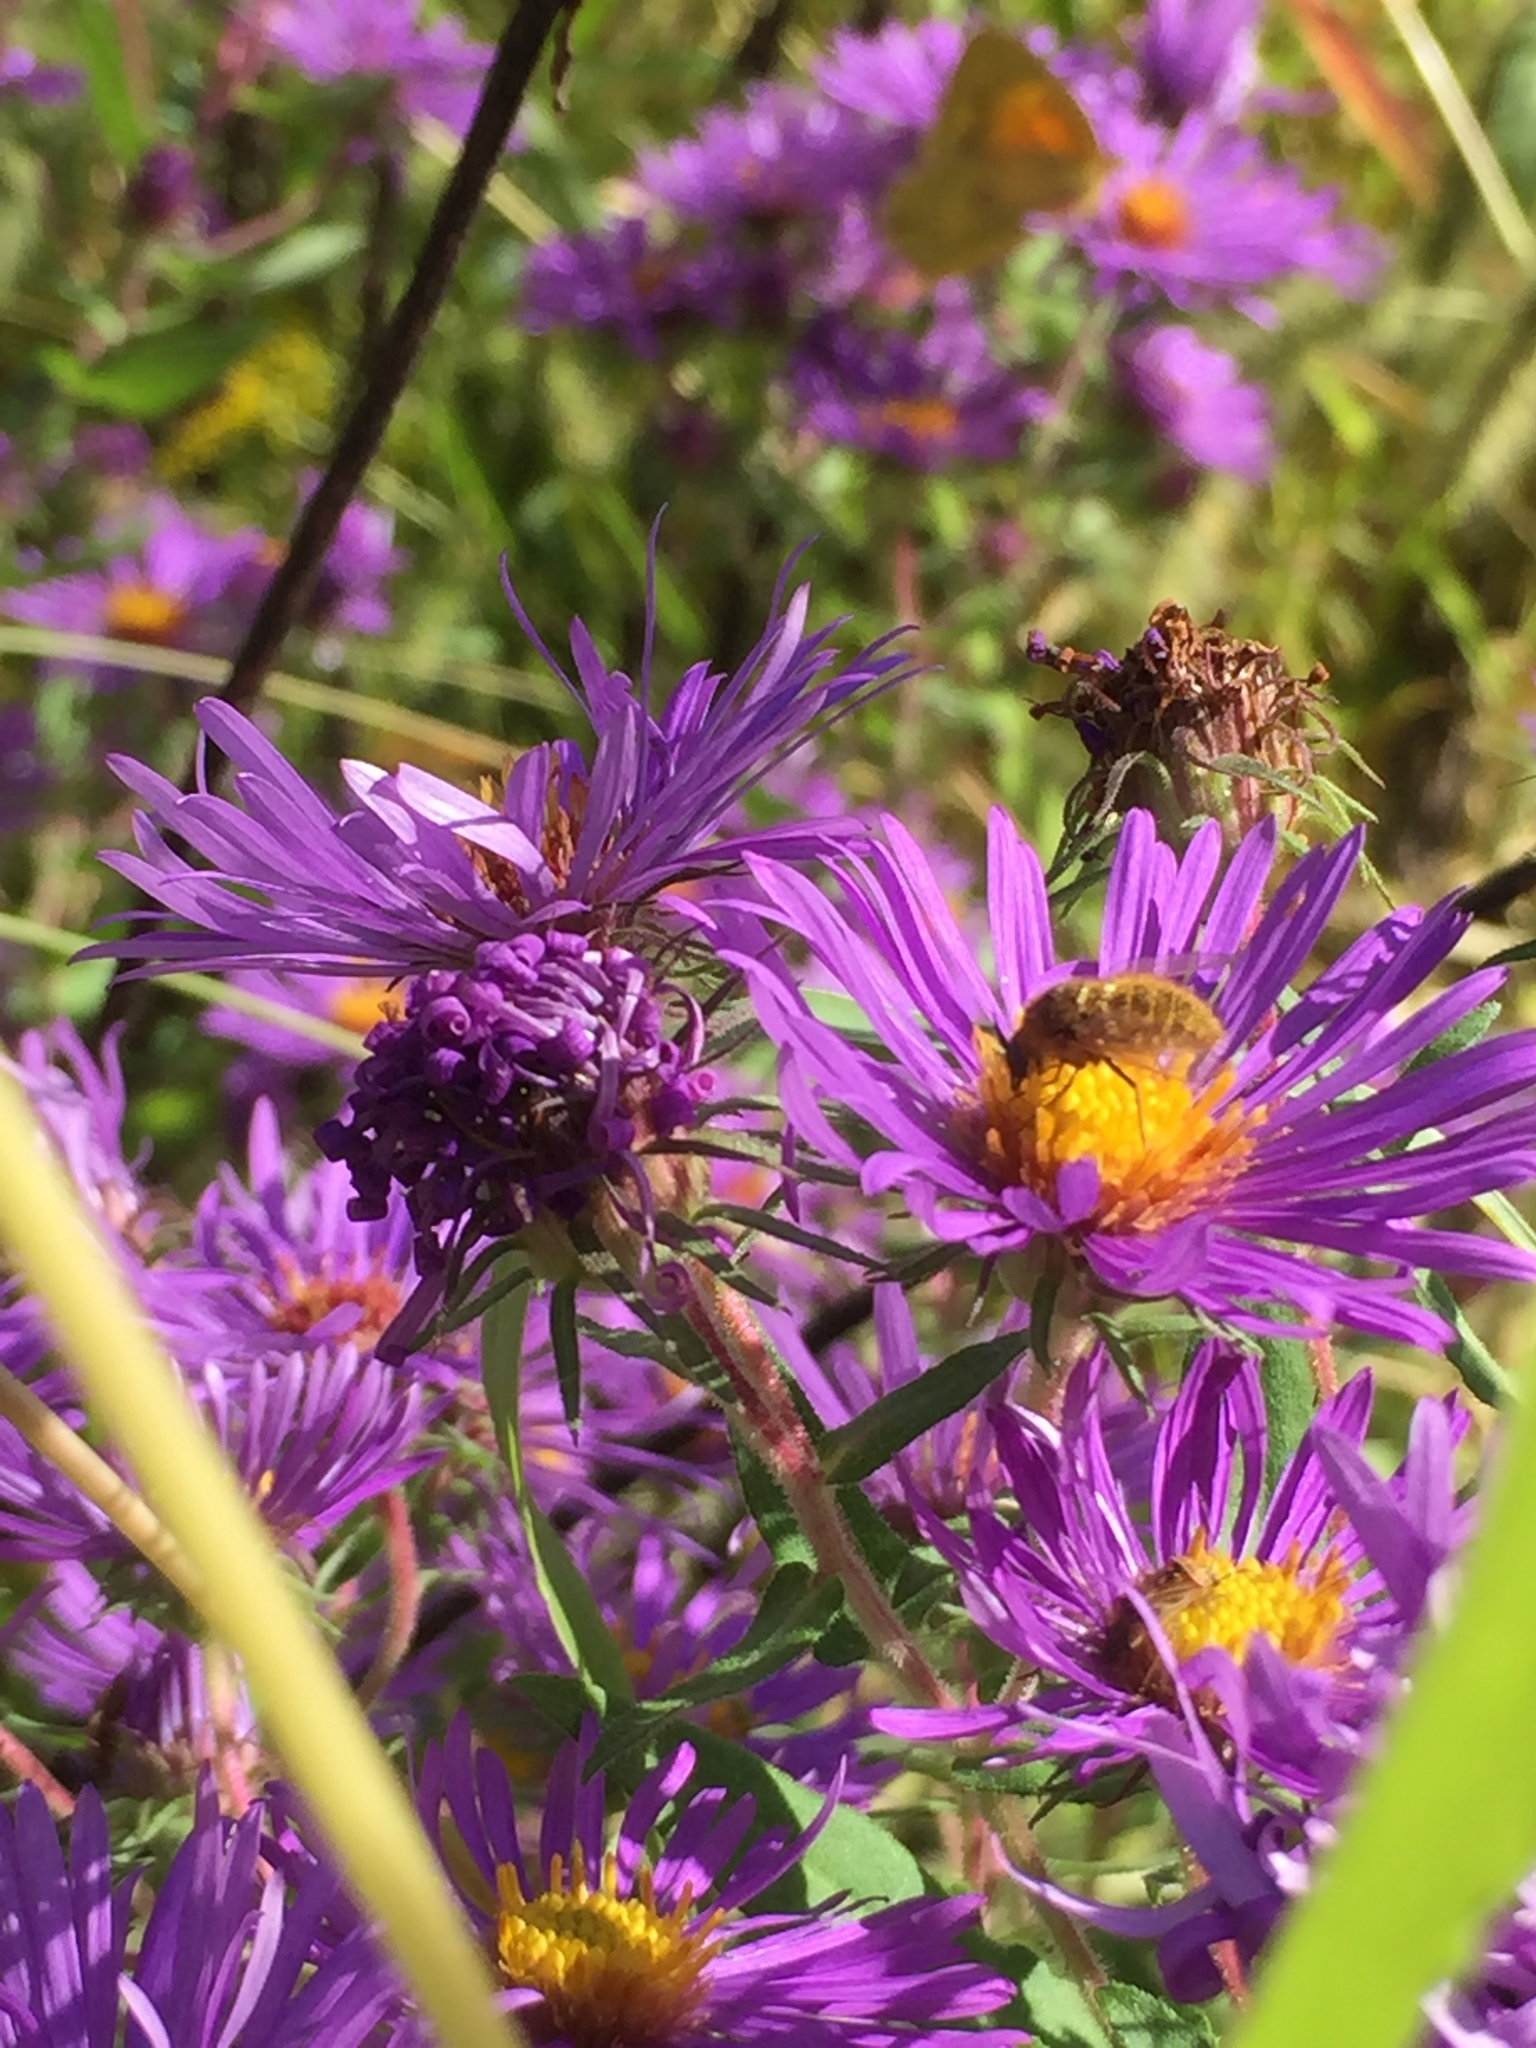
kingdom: Animalia
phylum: Arthropoda
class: Insecta
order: Diptera
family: Bombyliidae
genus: Sparnopolius
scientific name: Sparnopolius
